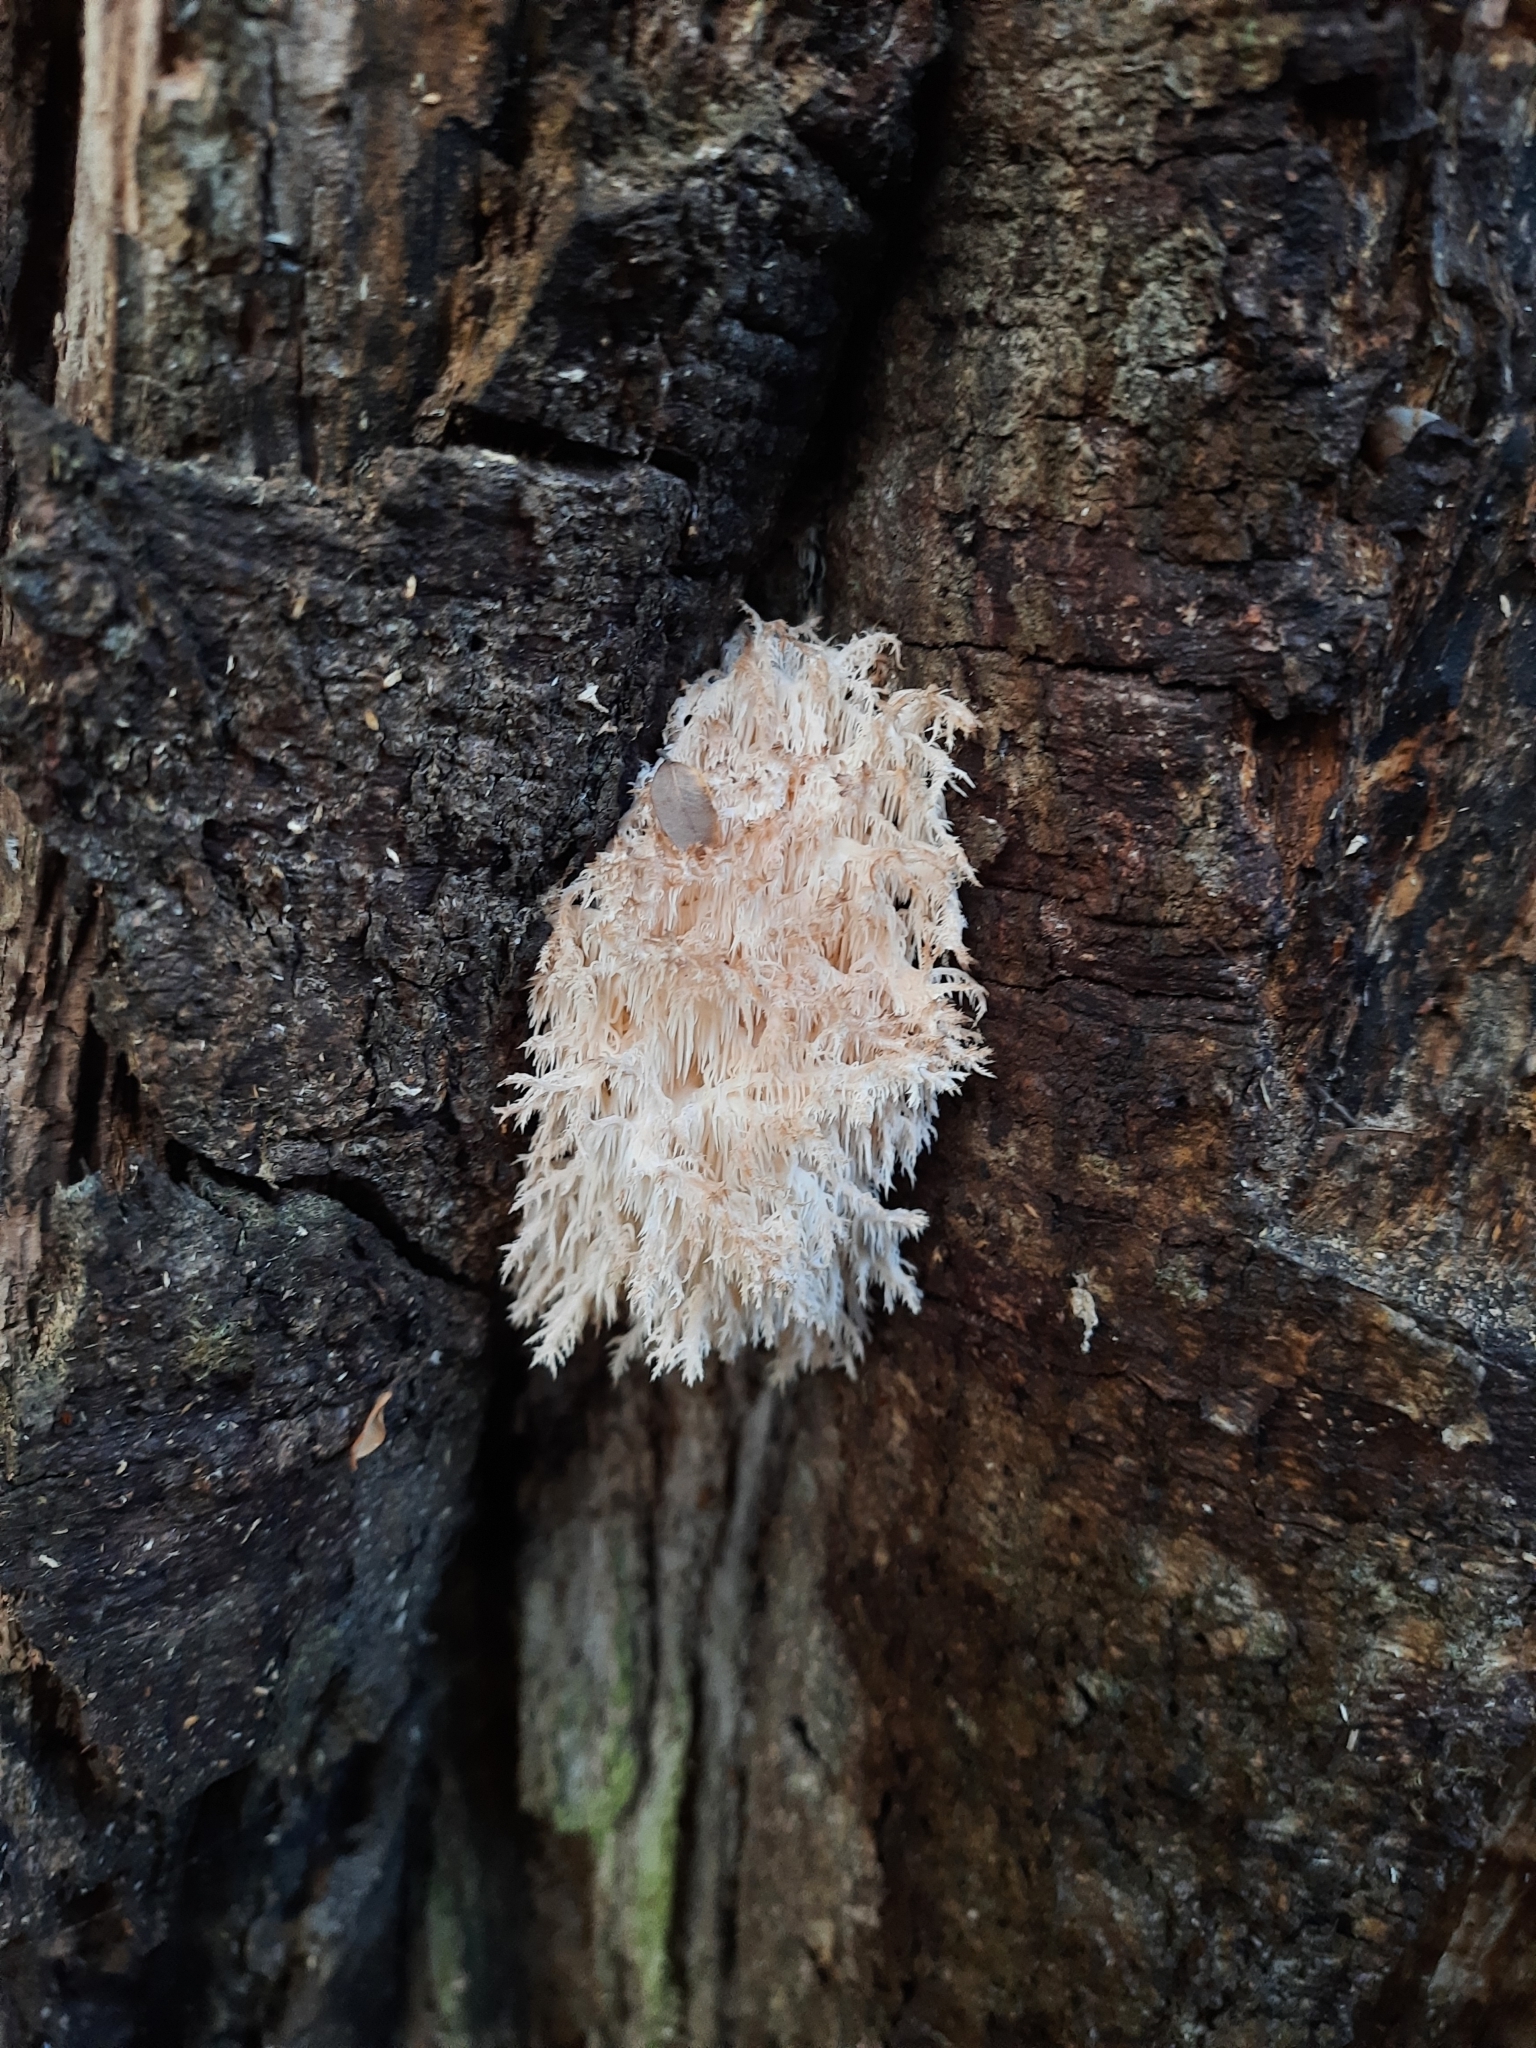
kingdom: Fungi
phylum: Basidiomycota
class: Agaricomycetes
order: Russulales
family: Hericiaceae
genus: Hericium
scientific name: Hericium novae-zealandiae
